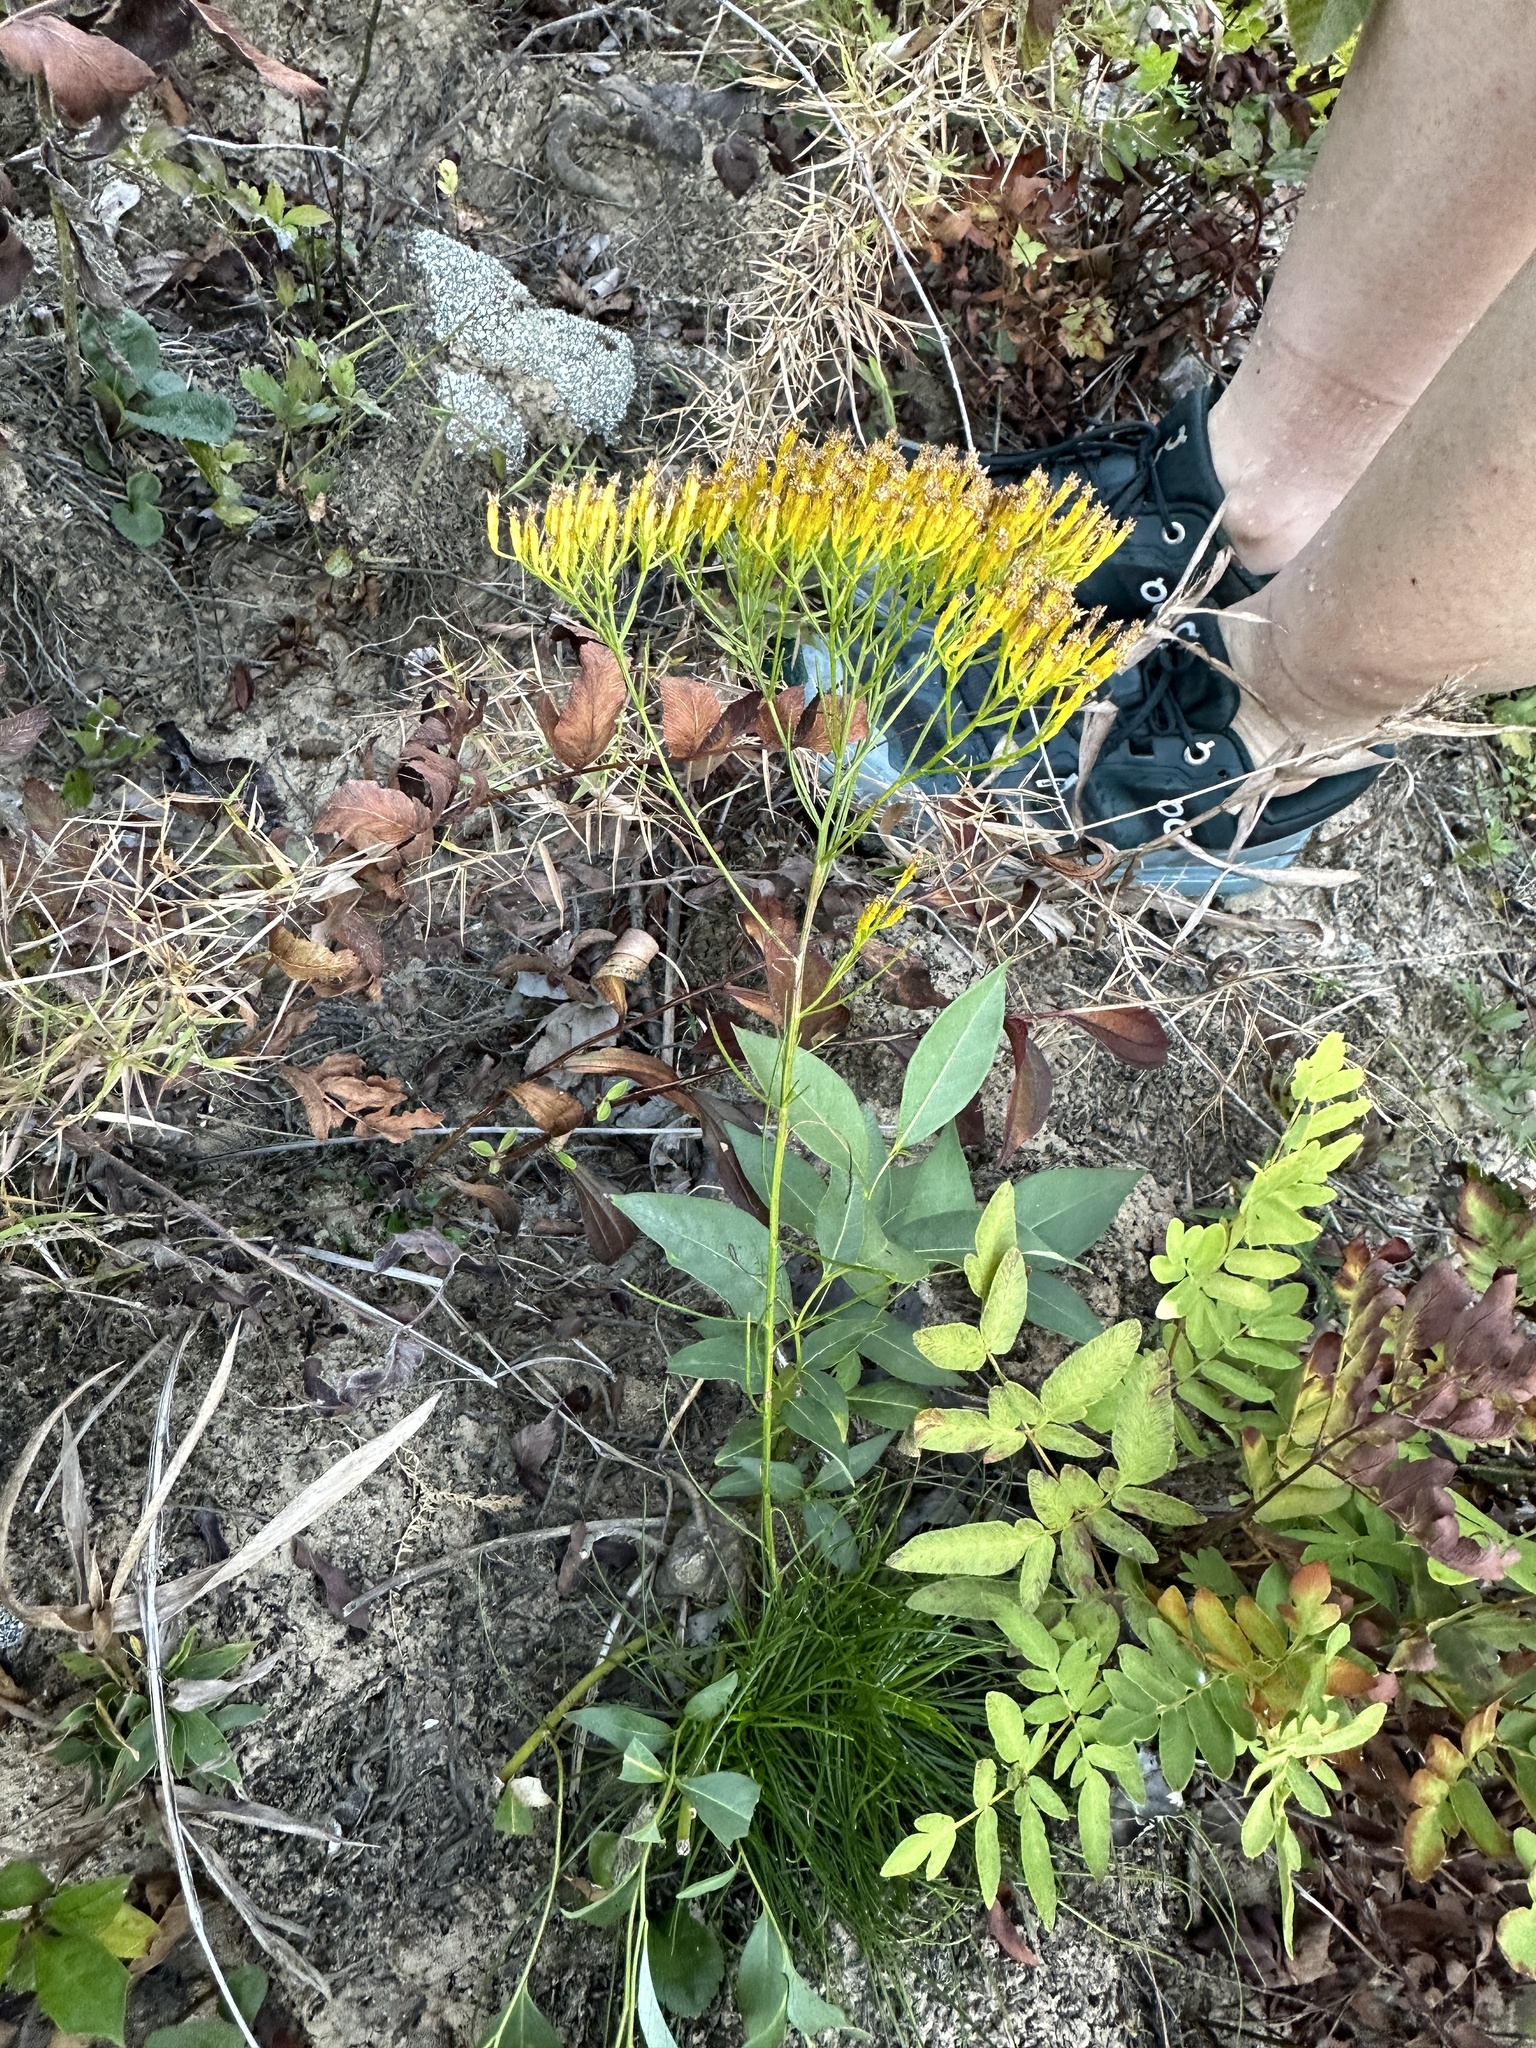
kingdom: Plantae
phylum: Tracheophyta
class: Magnoliopsida
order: Asterales
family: Asteraceae
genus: Bigelowia
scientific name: Bigelowia nuttallii
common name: Nuttall's rayless-goldenrod
